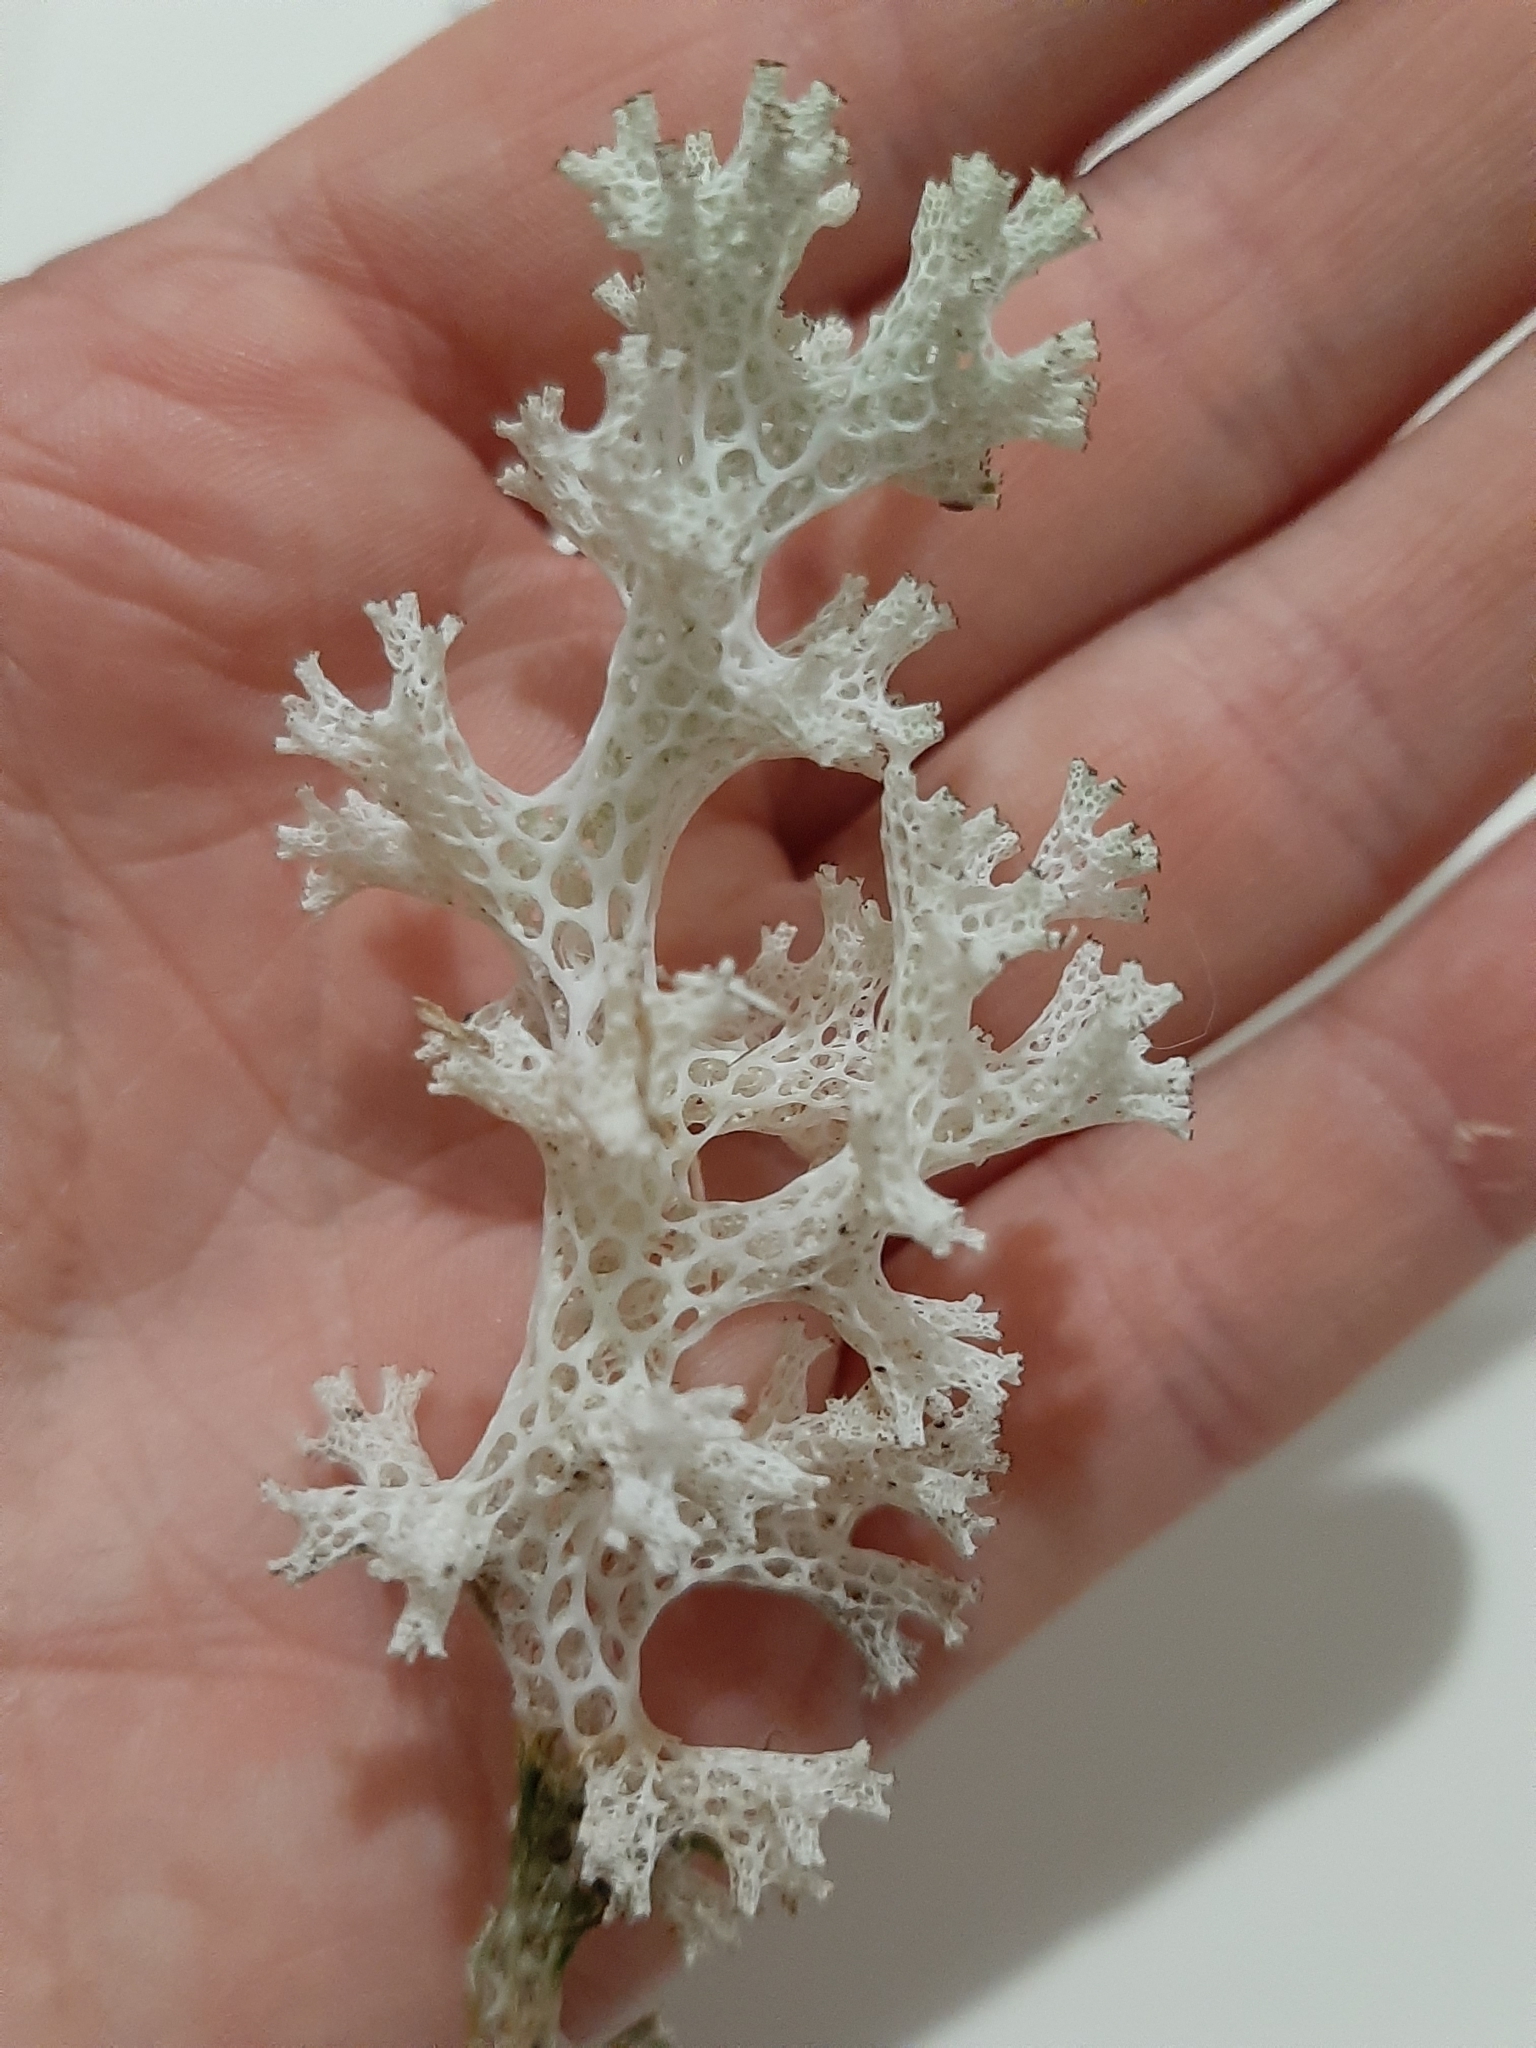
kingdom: Fungi
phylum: Ascomycota
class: Lecanoromycetes
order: Lecanorales
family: Cladoniaceae
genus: Pulchrocladia
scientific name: Pulchrocladia retipora
